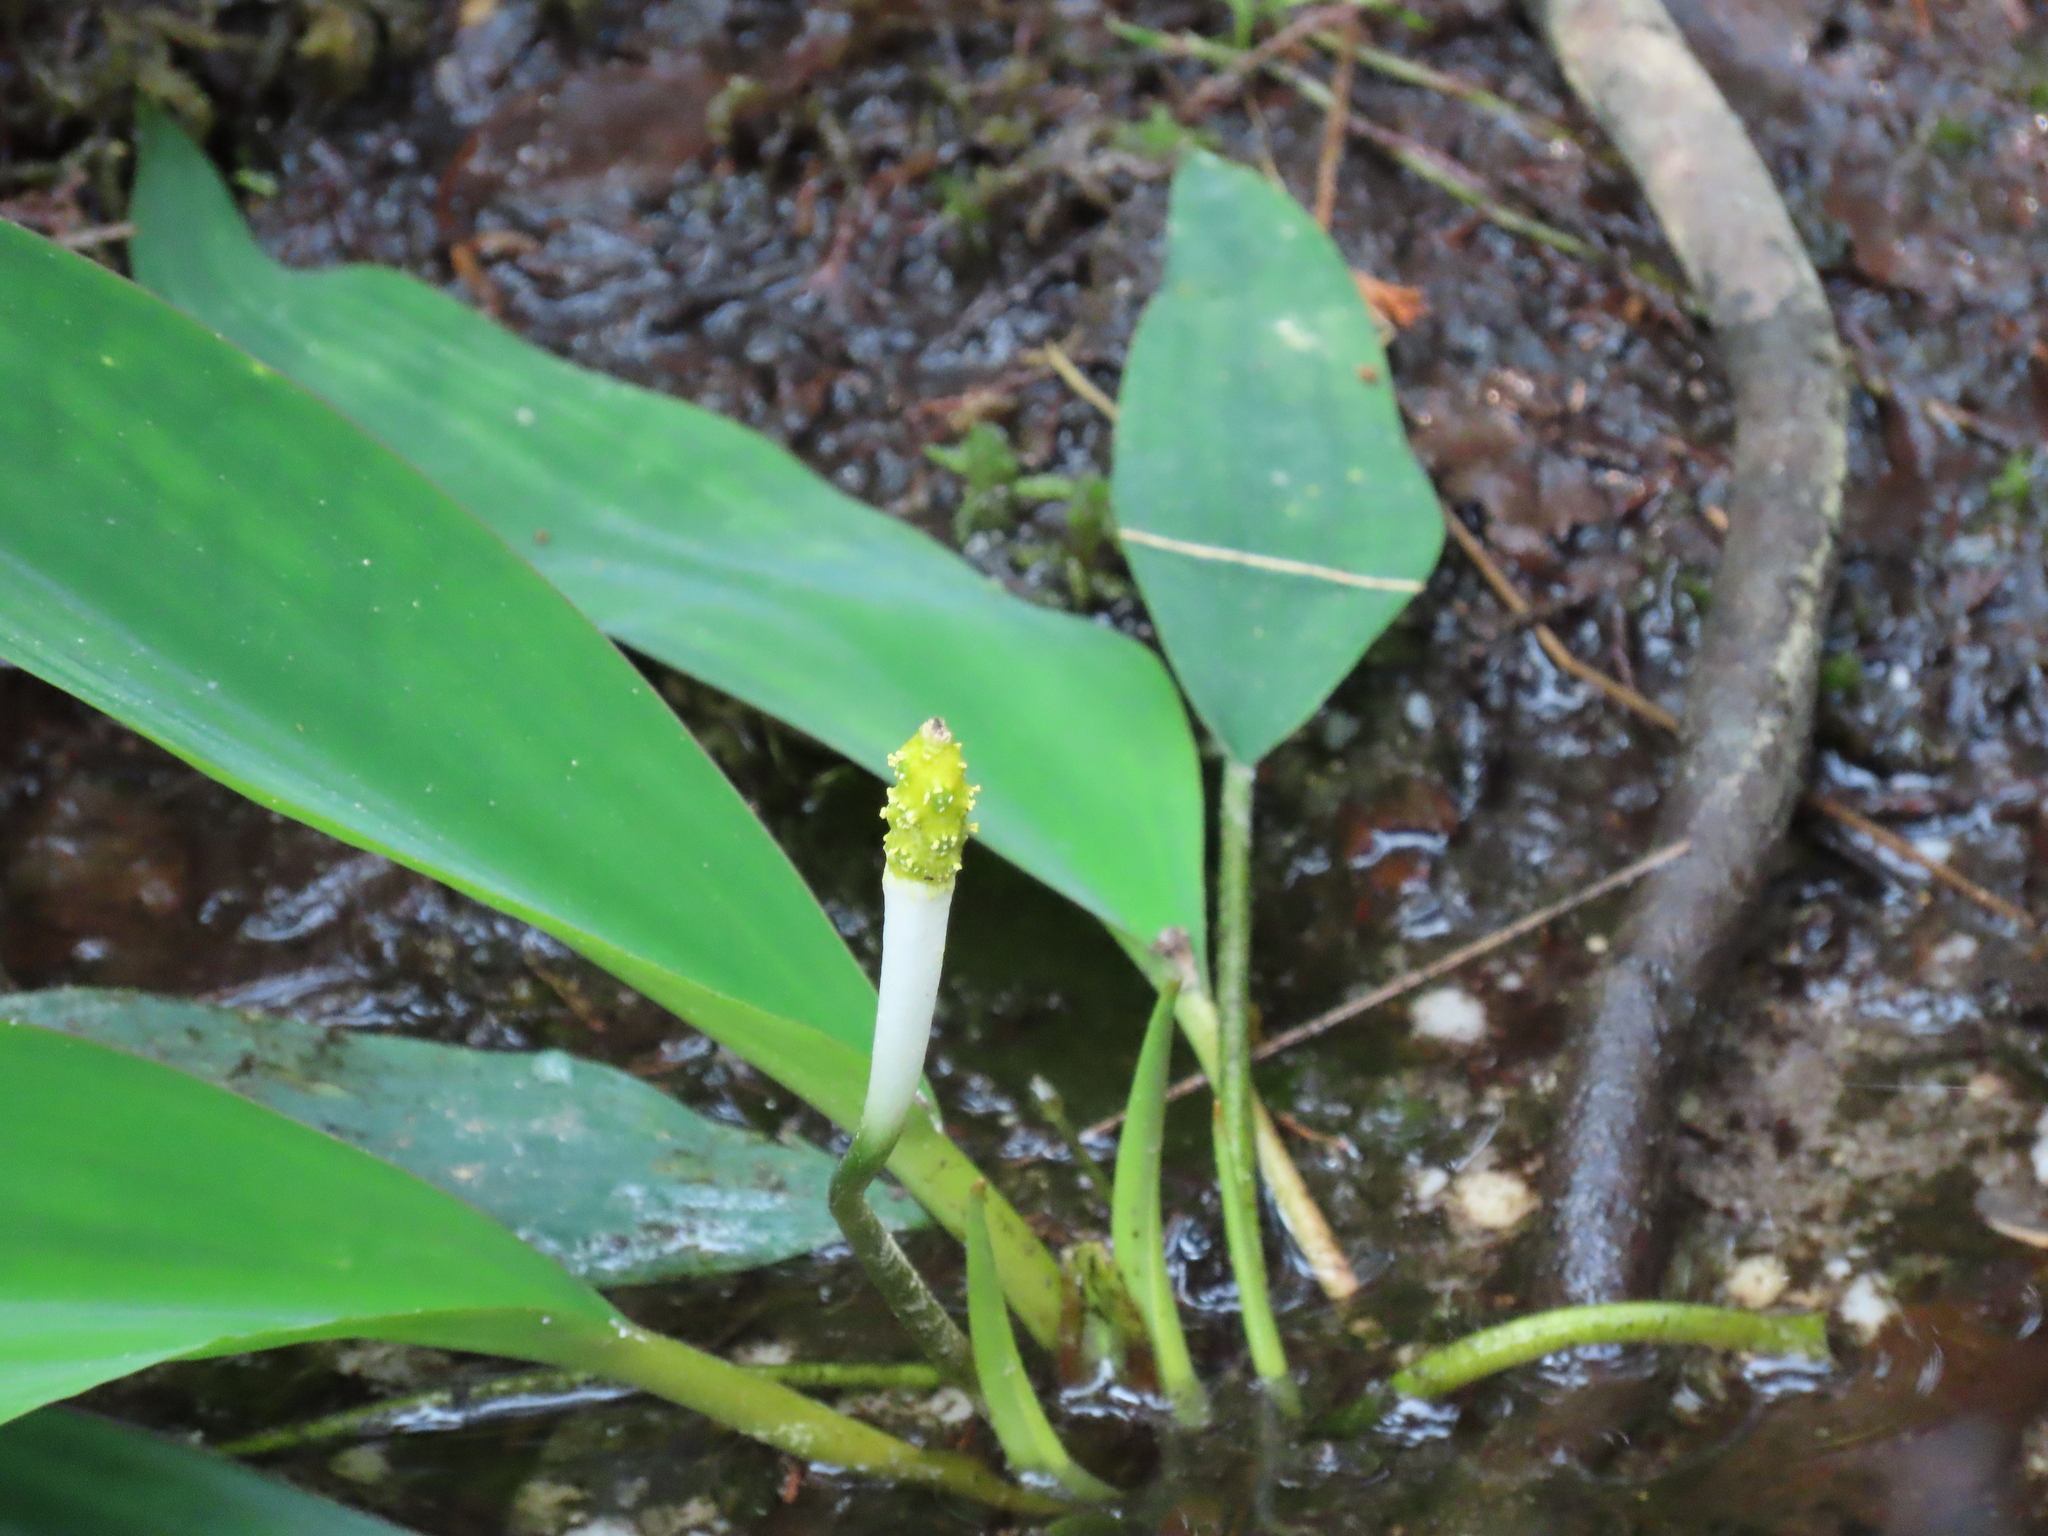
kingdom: Plantae
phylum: Tracheophyta
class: Liliopsida
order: Alismatales
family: Araceae
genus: Orontium
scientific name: Orontium aquaticum
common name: Golden-club
